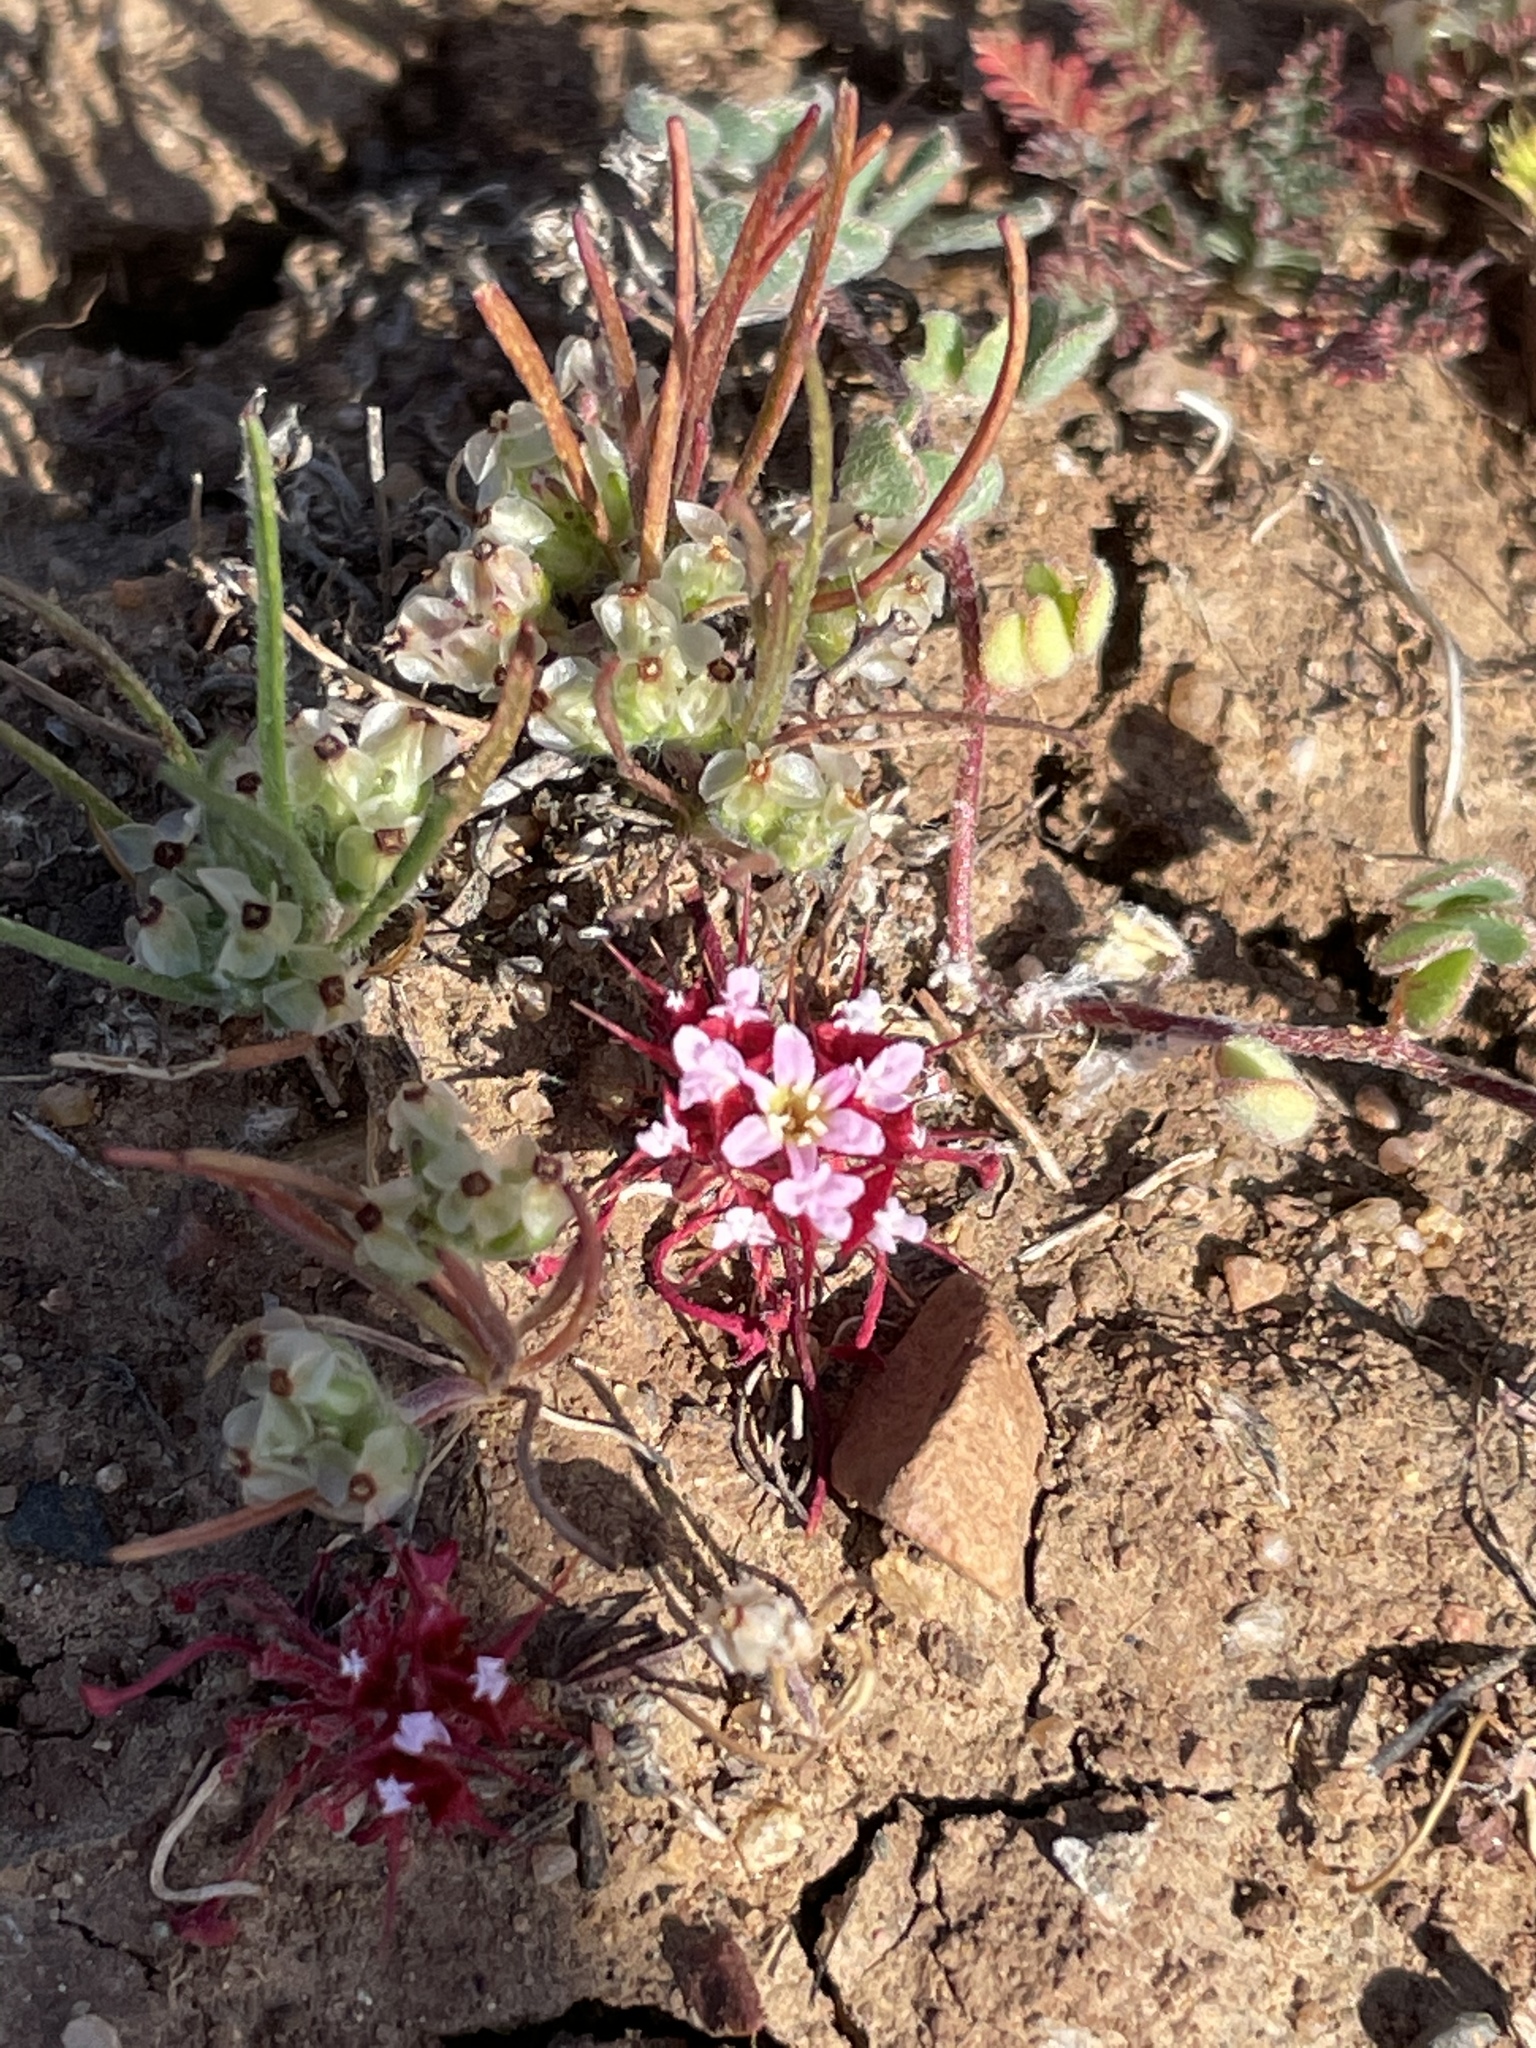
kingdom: Plantae
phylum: Tracheophyta
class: Magnoliopsida
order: Caryophyllales
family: Polygonaceae
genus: Chorizanthe
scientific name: Chorizanthe turbinata
